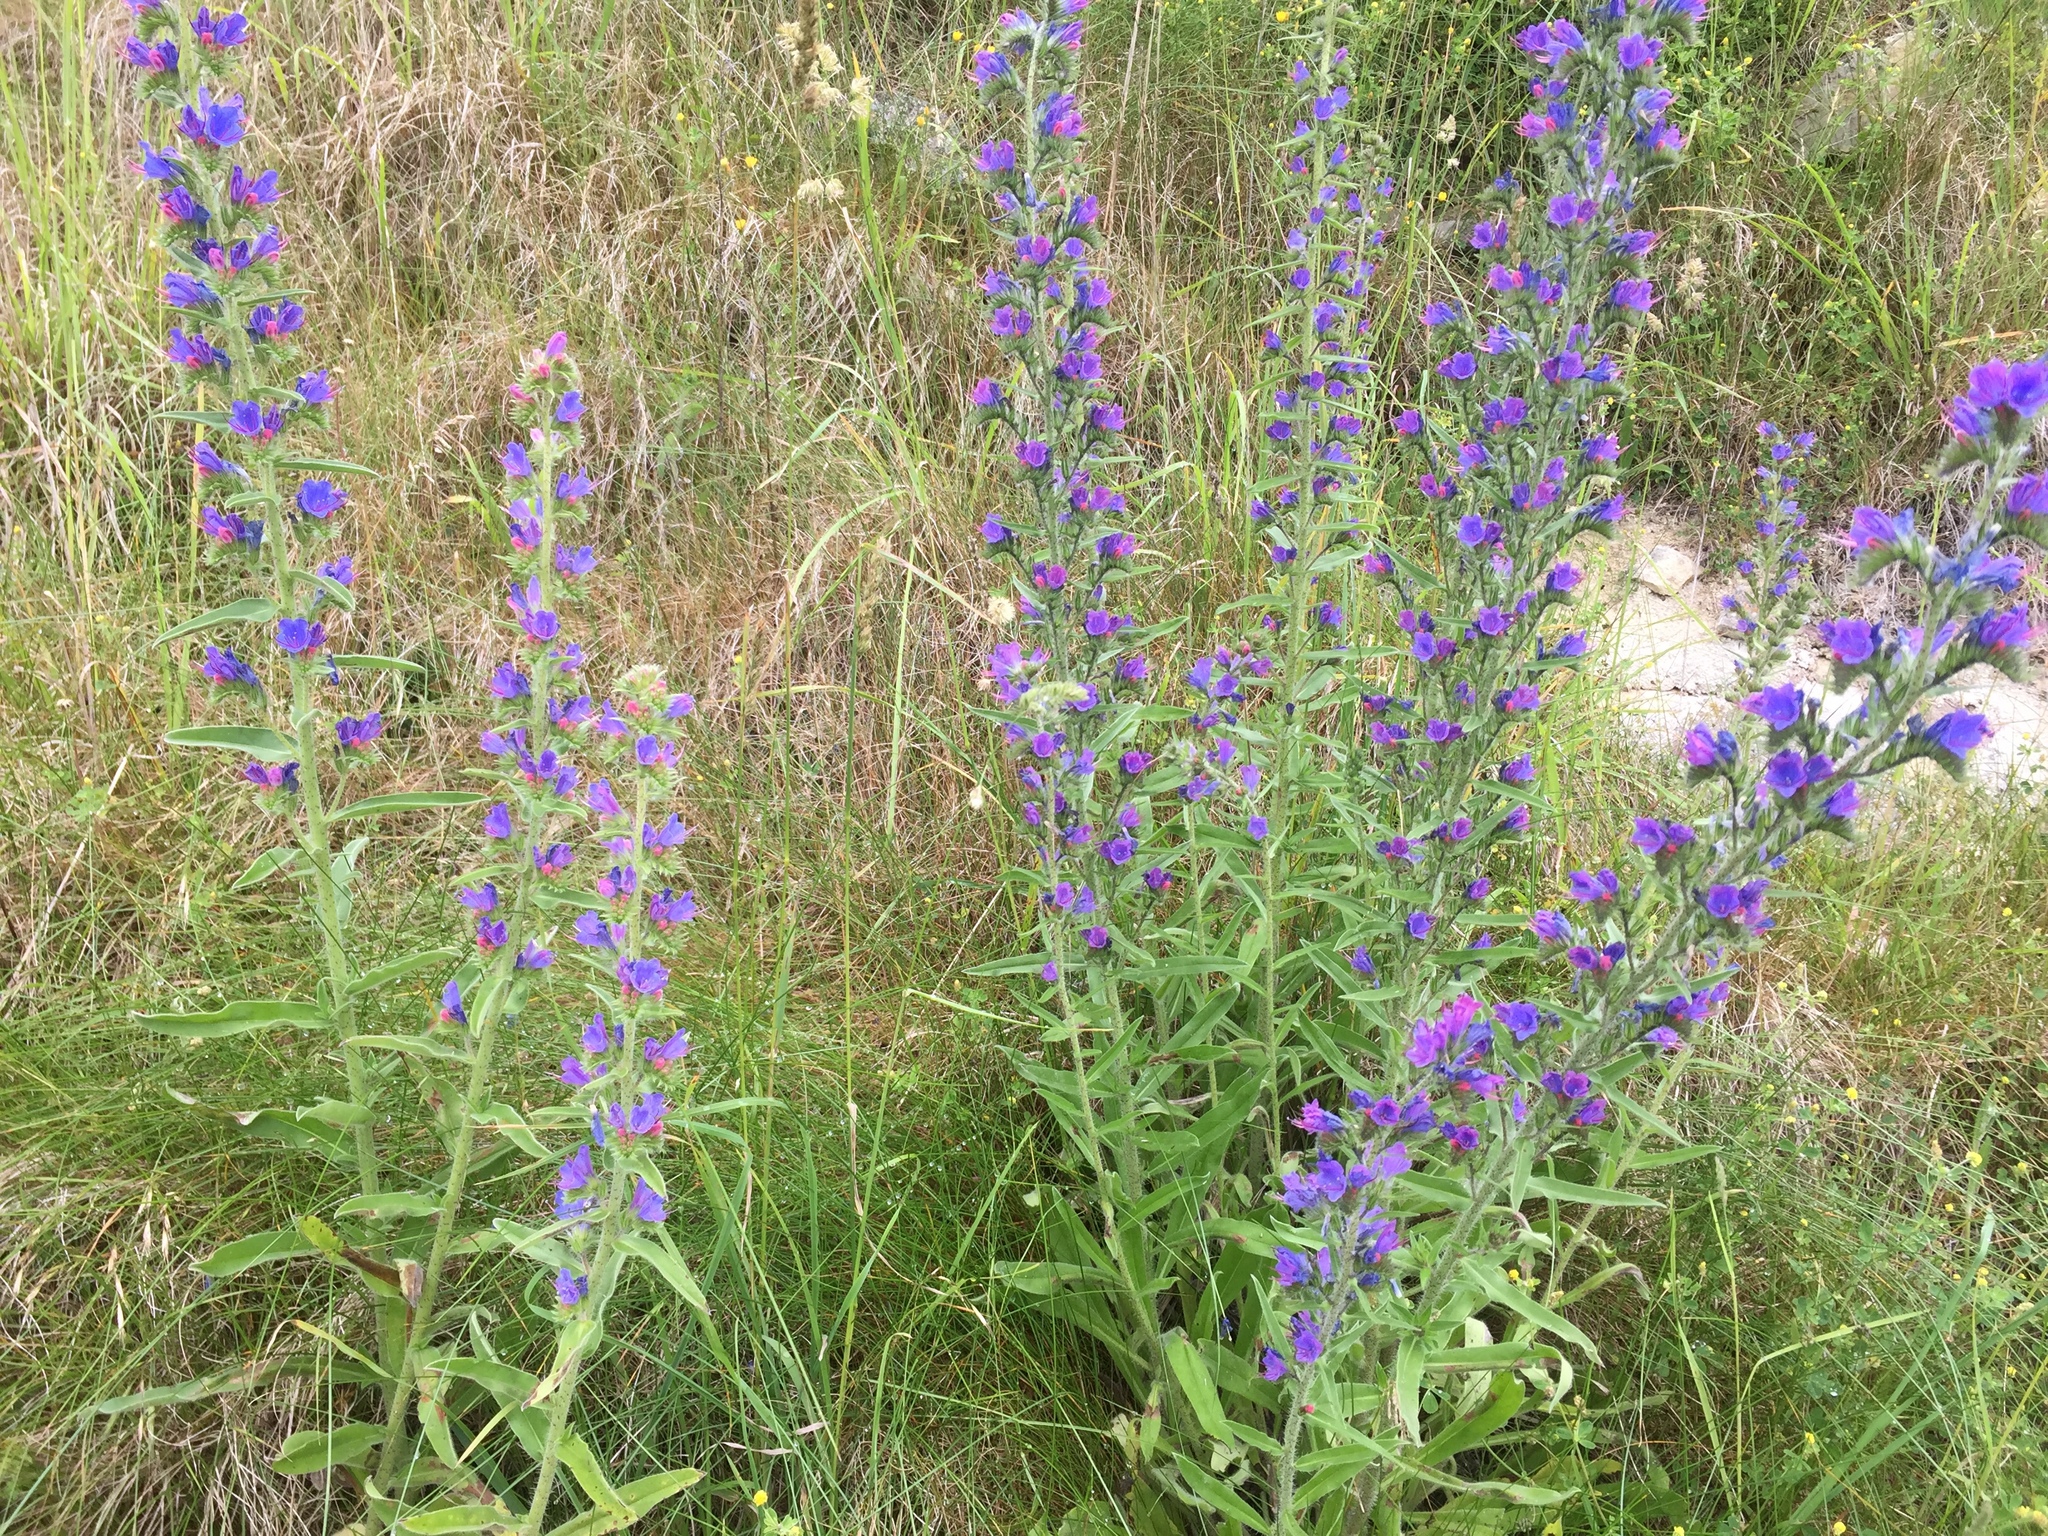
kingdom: Plantae
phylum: Tracheophyta
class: Magnoliopsida
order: Boraginales
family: Boraginaceae
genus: Echium
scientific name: Echium vulgare
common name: Common viper's bugloss
